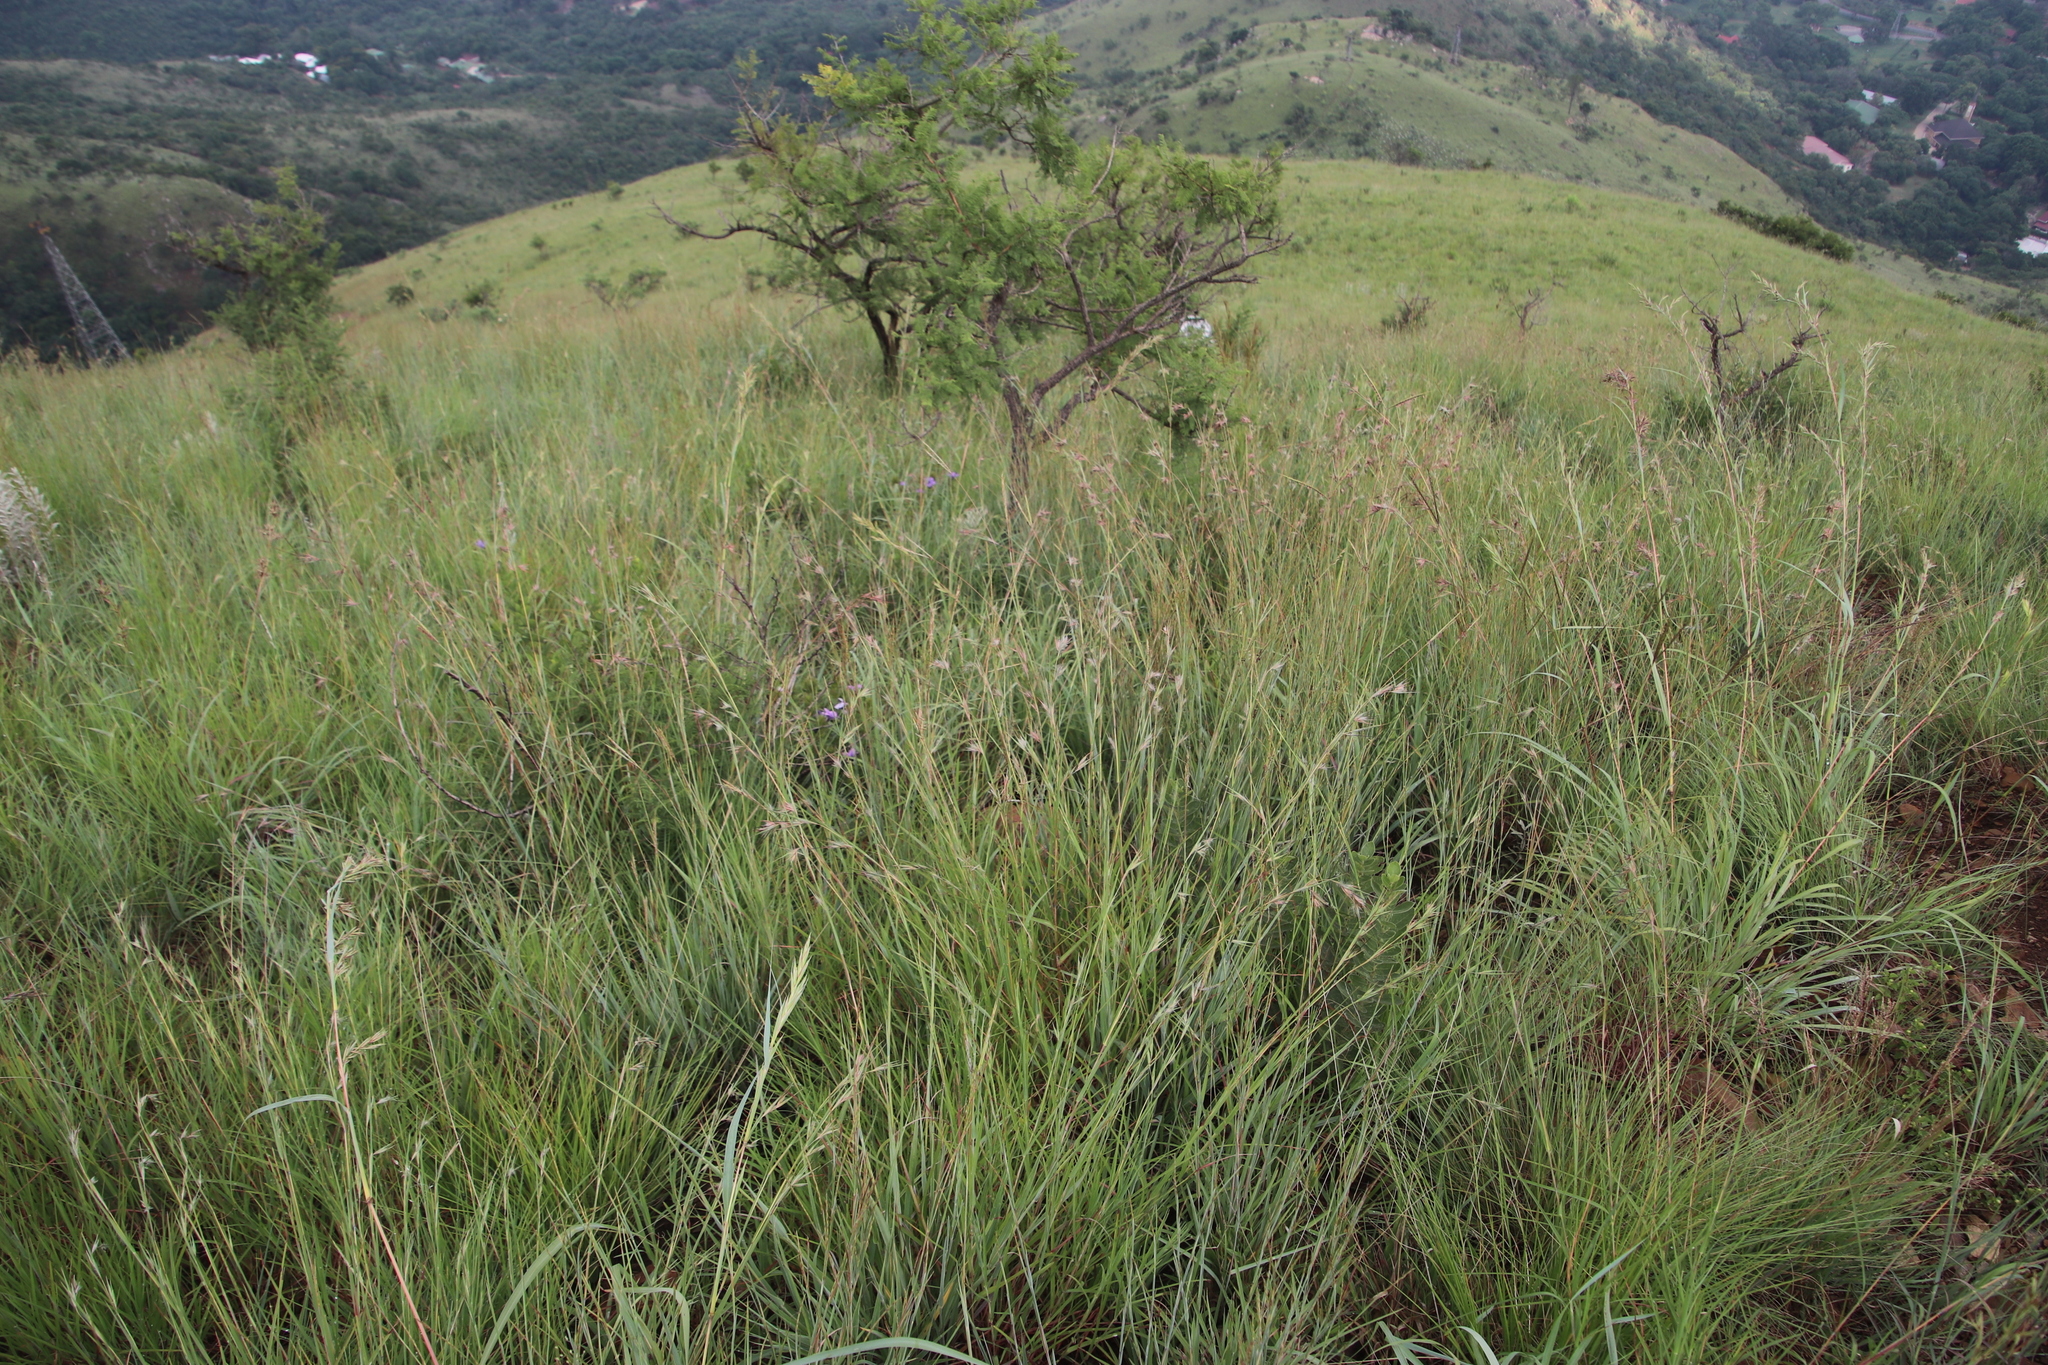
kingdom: Plantae
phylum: Tracheophyta
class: Liliopsida
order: Poales
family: Poaceae
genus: Themeda
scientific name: Themeda triandra
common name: Kangaroo grass
